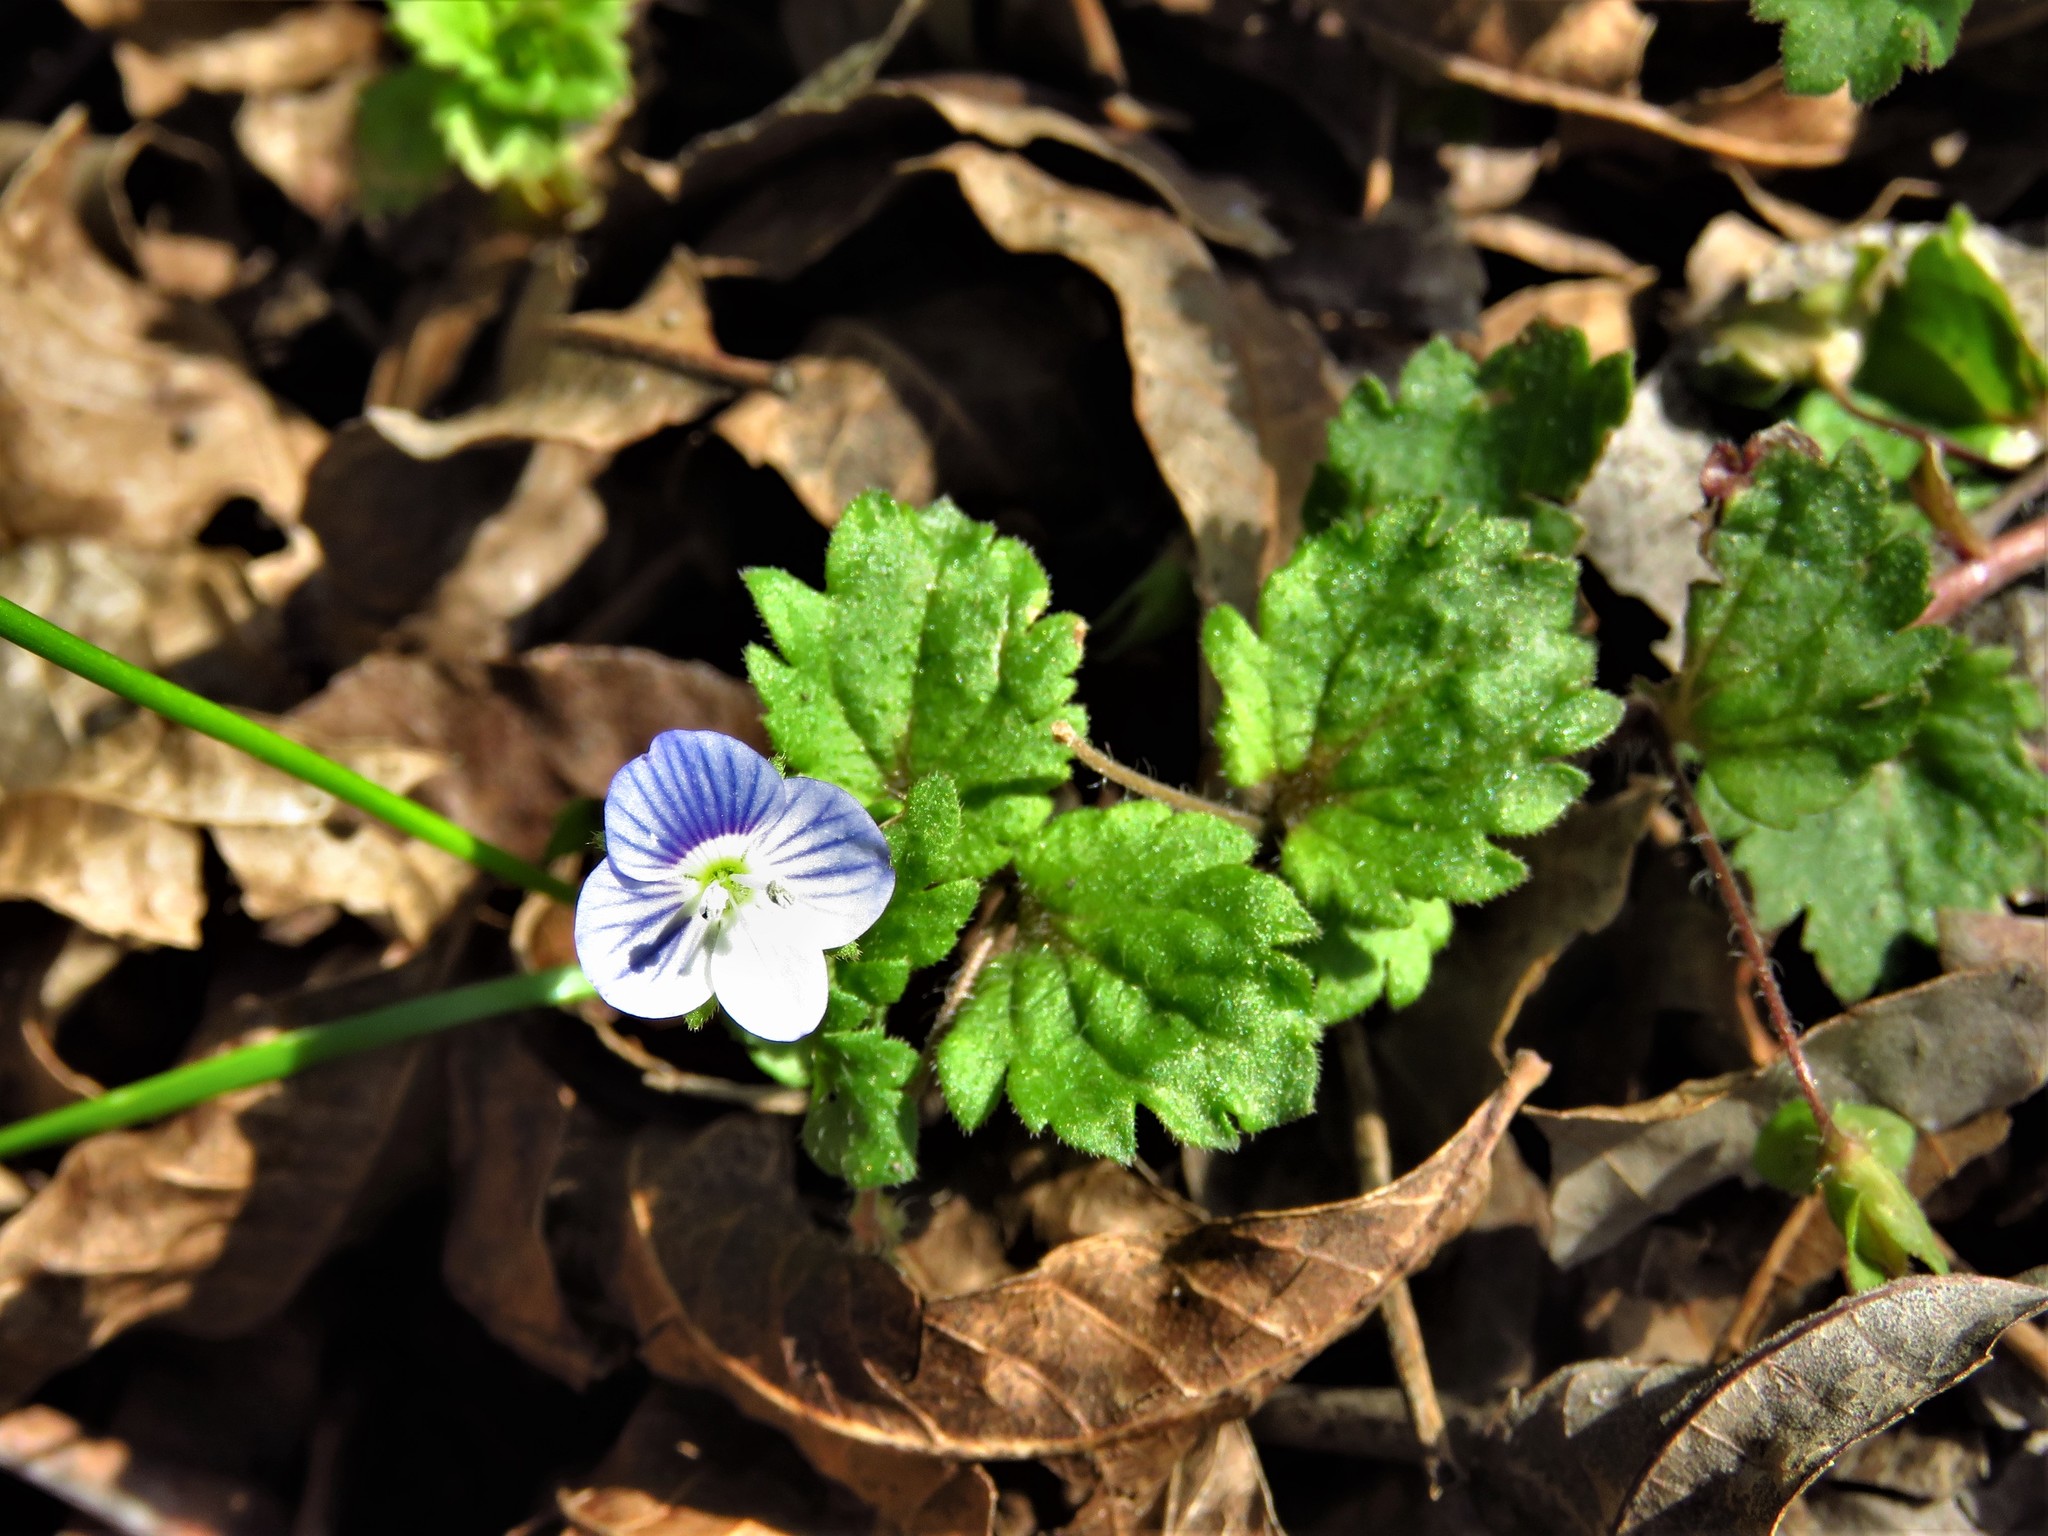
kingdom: Plantae
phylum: Tracheophyta
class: Magnoliopsida
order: Lamiales
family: Plantaginaceae
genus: Veronica
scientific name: Veronica persica
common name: Common field-speedwell
